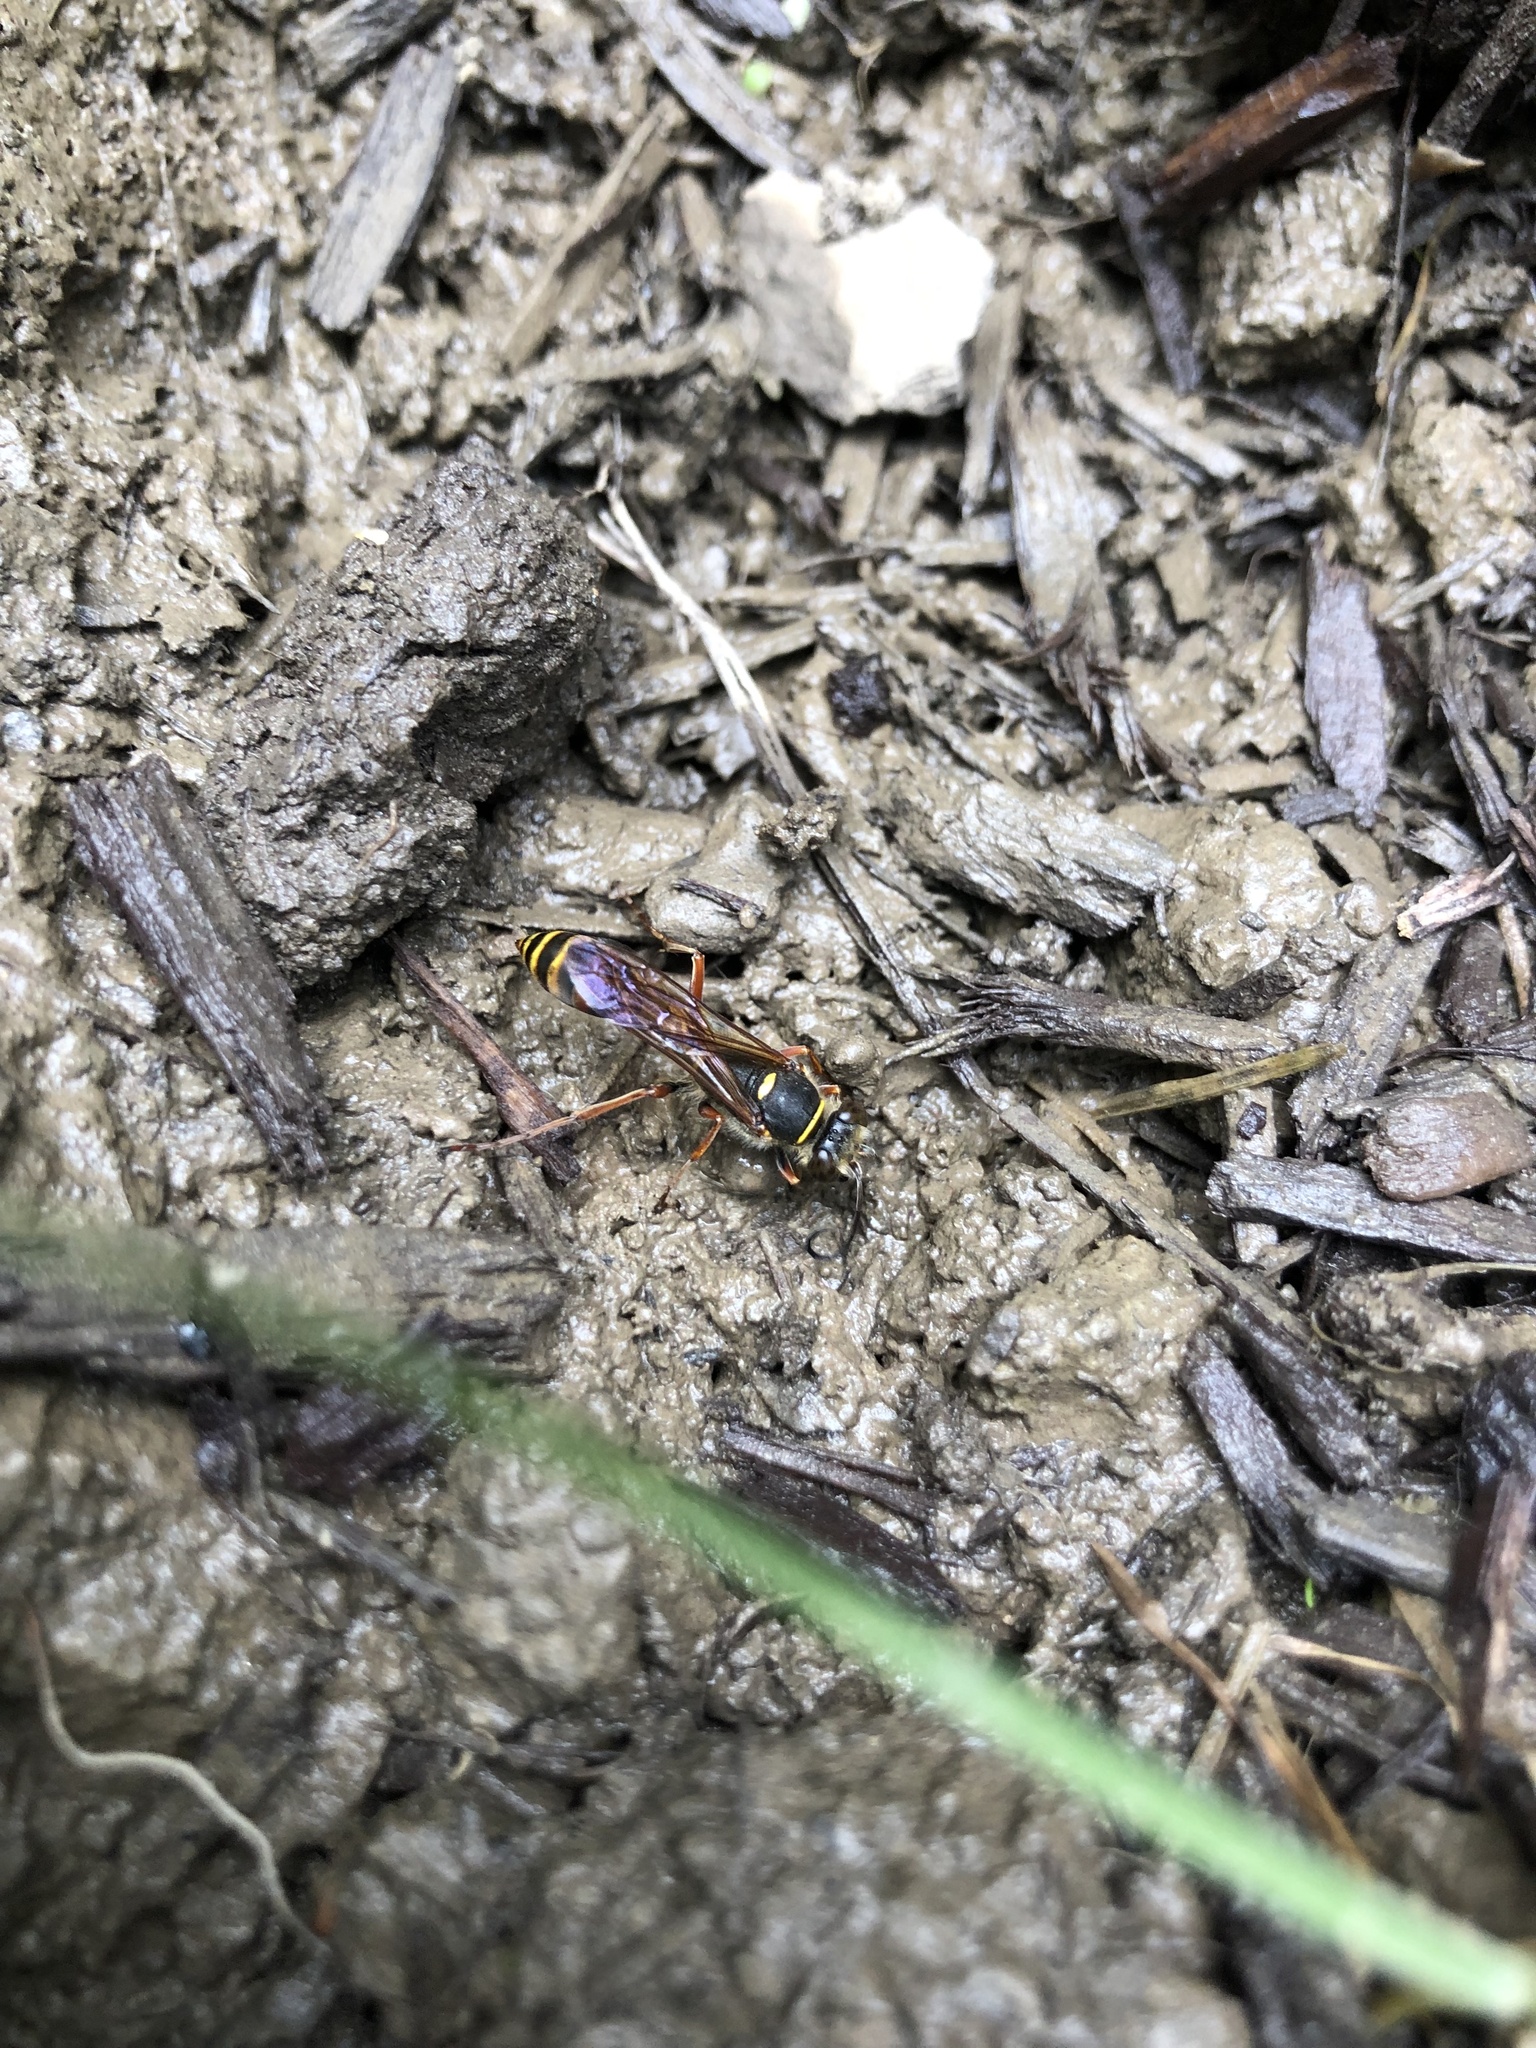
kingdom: Animalia
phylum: Arthropoda
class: Insecta
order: Hymenoptera
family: Sphecidae
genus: Sceliphron
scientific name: Sceliphron curvatum
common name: Pèlopèe
